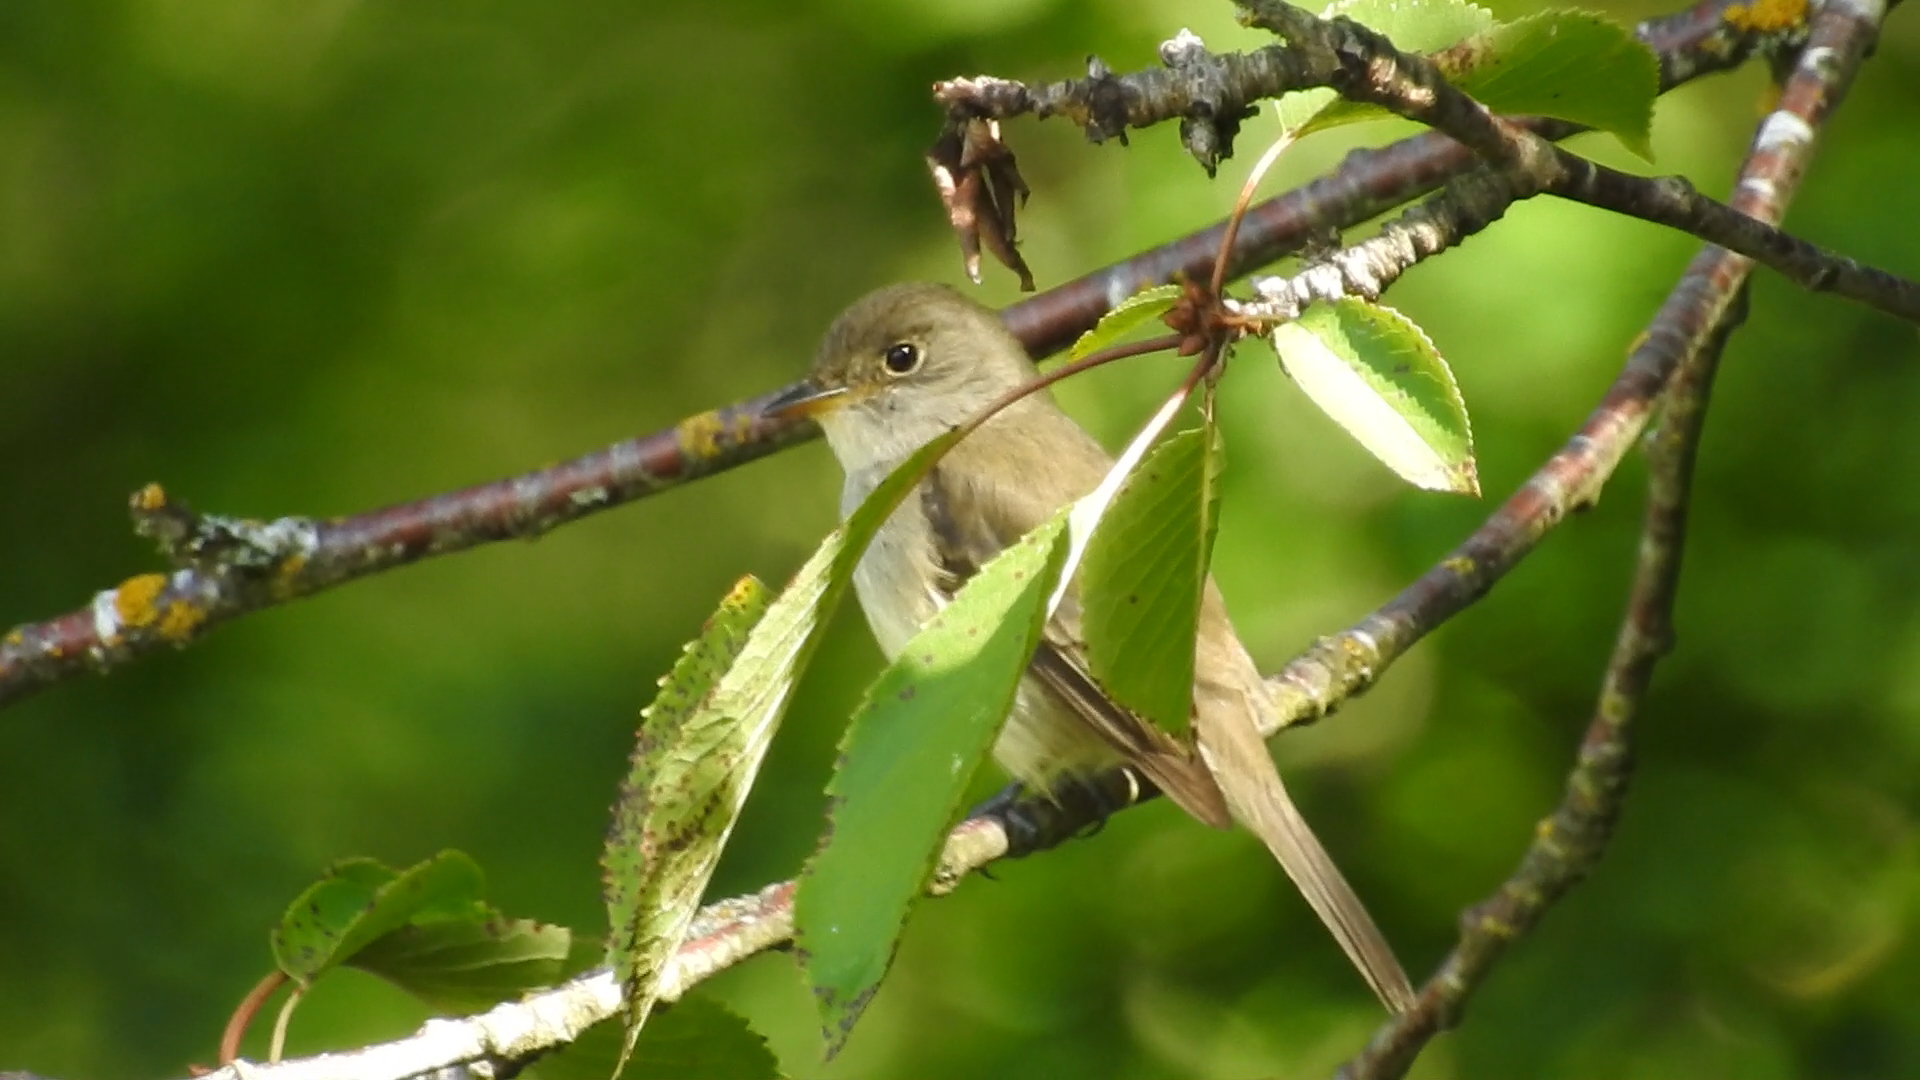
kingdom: Animalia
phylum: Chordata
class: Aves
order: Passeriformes
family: Tyrannidae
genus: Empidonax
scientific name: Empidonax traillii
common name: Willow flycatcher
